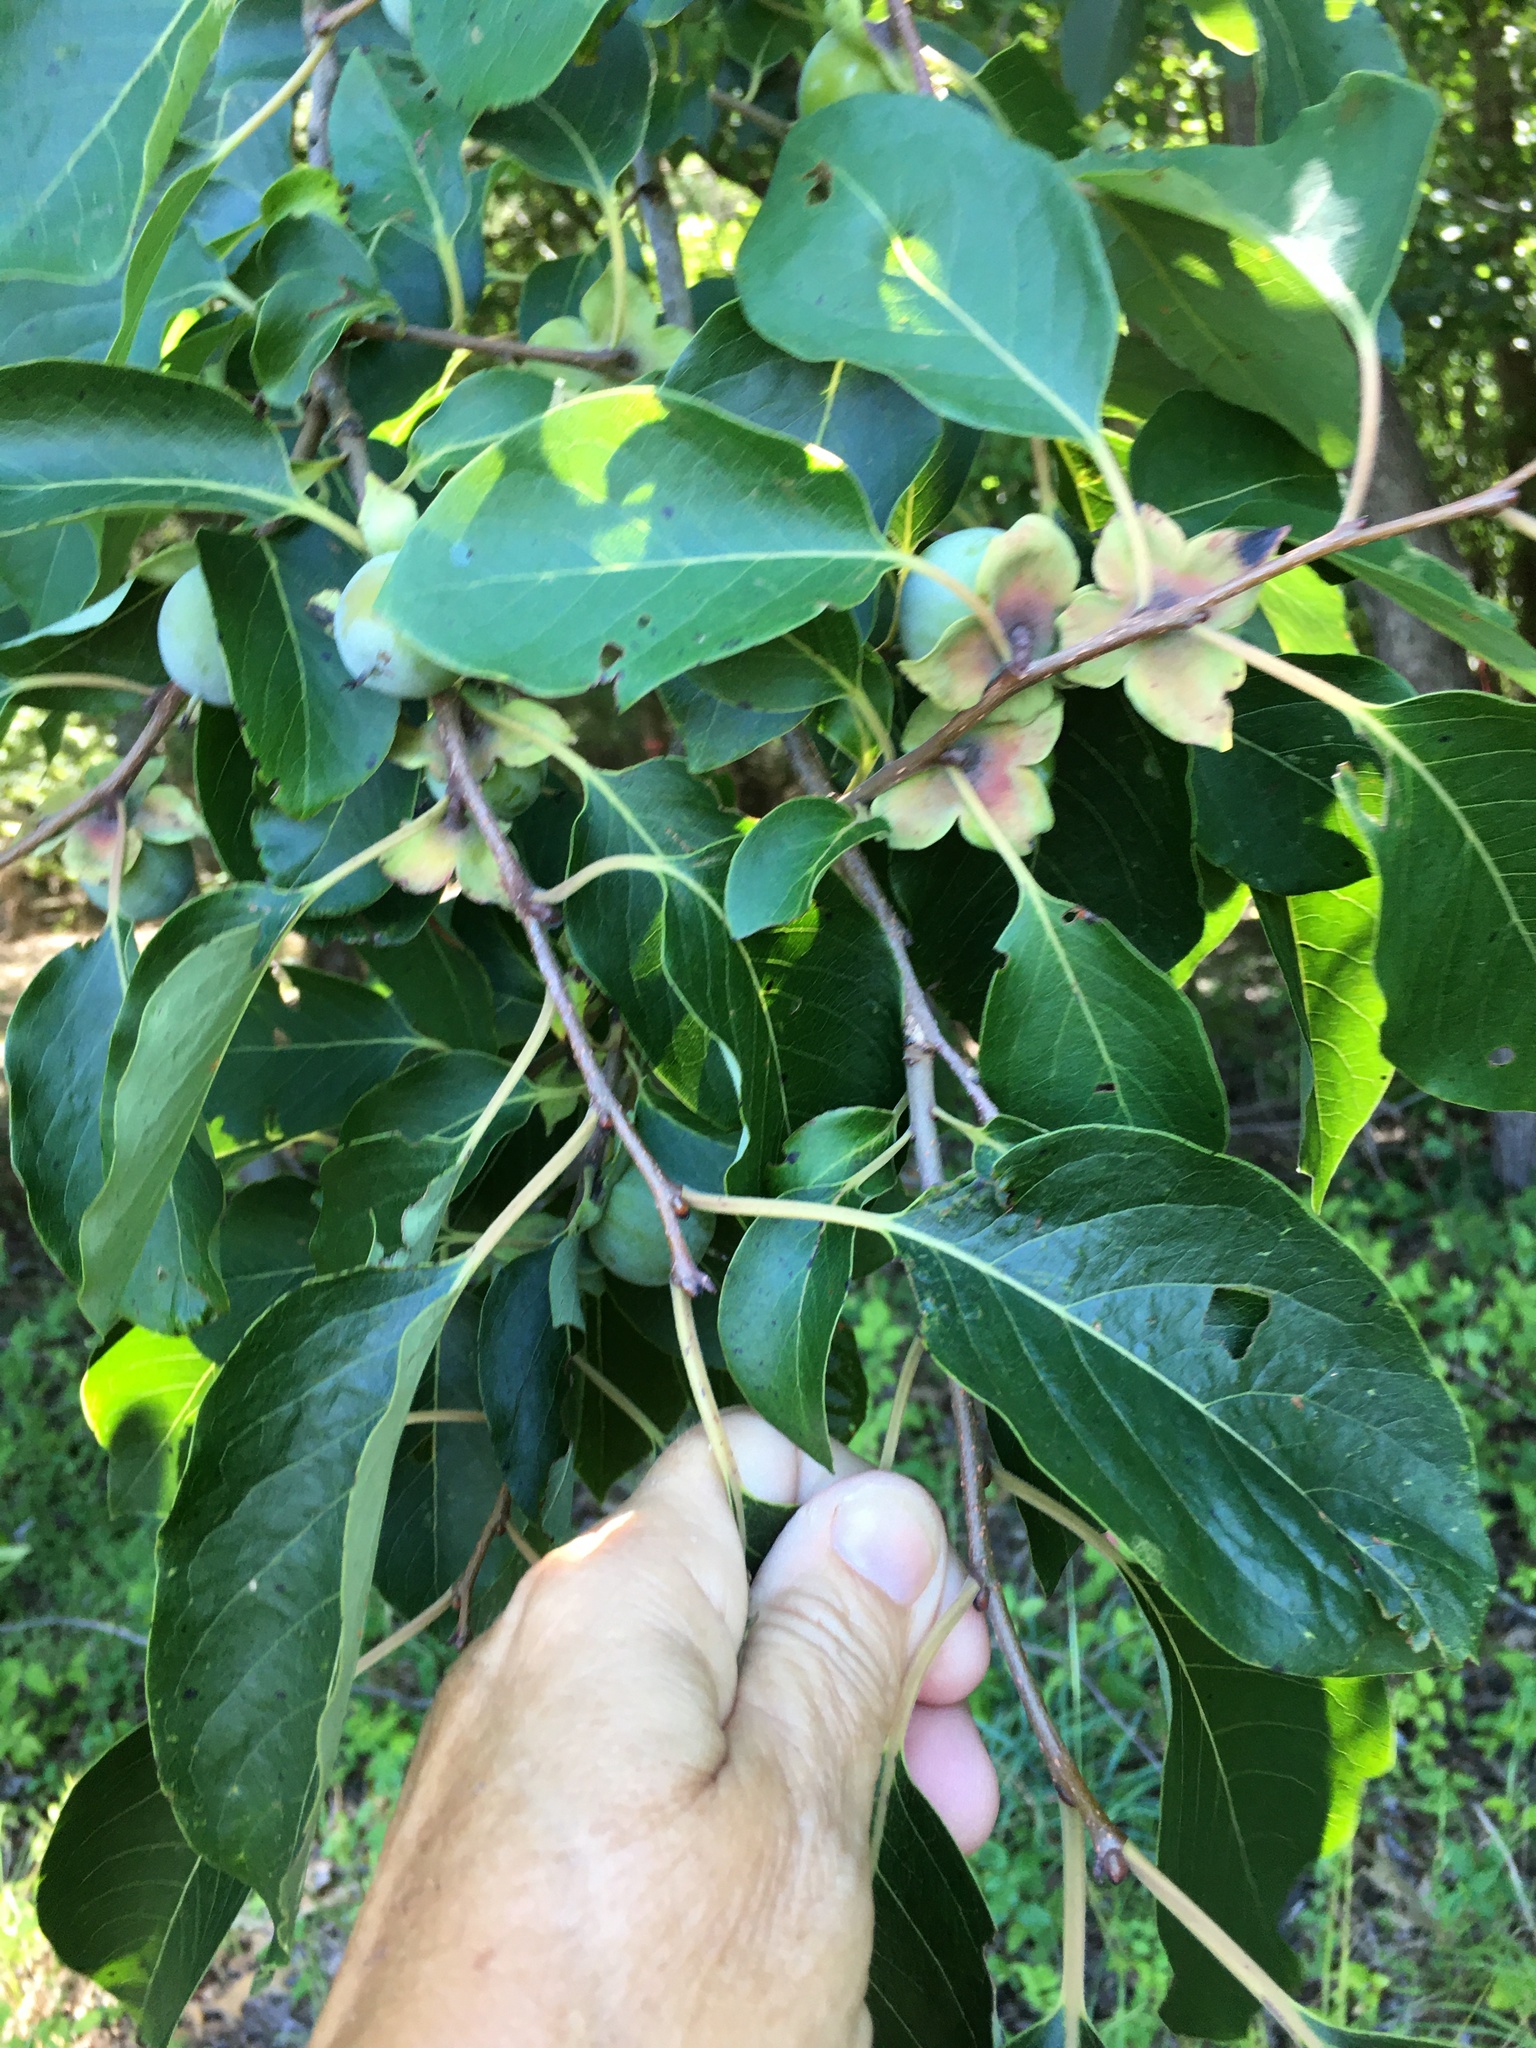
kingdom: Plantae
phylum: Tracheophyta
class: Magnoliopsida
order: Ericales
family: Ebenaceae
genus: Diospyros
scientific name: Diospyros virginiana
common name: Persimmon
